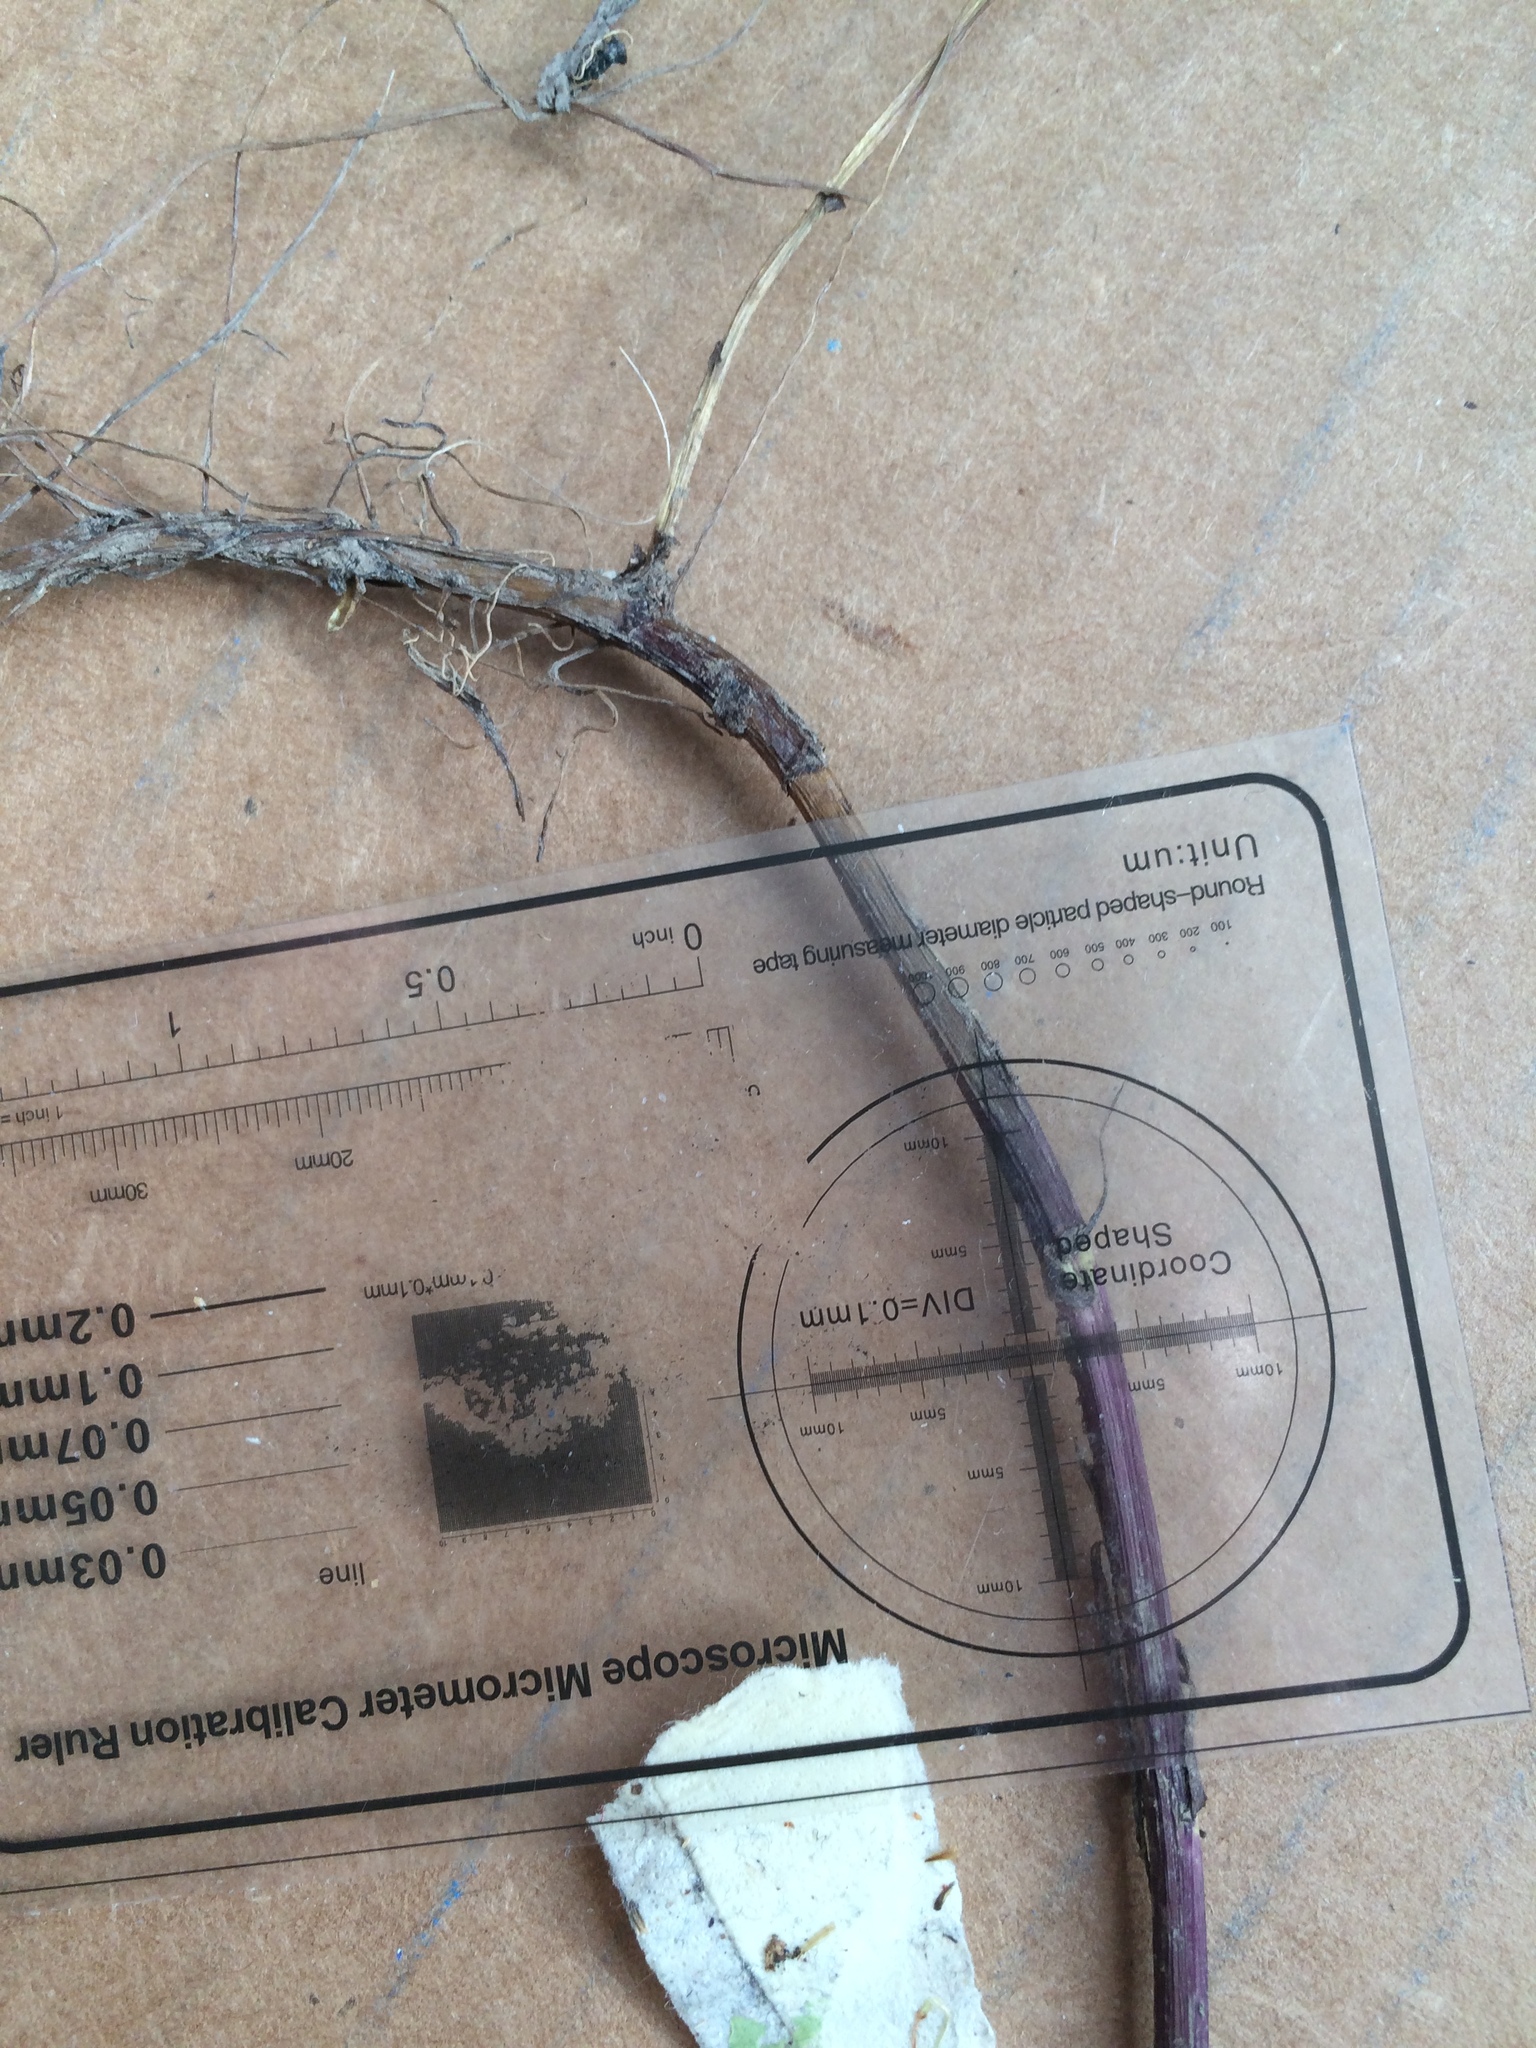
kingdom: Plantae
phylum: Tracheophyta
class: Magnoliopsida
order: Asterales
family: Asteraceae
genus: Symphyotrichum
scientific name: Symphyotrichum anticostense
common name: Anticosti island aster
